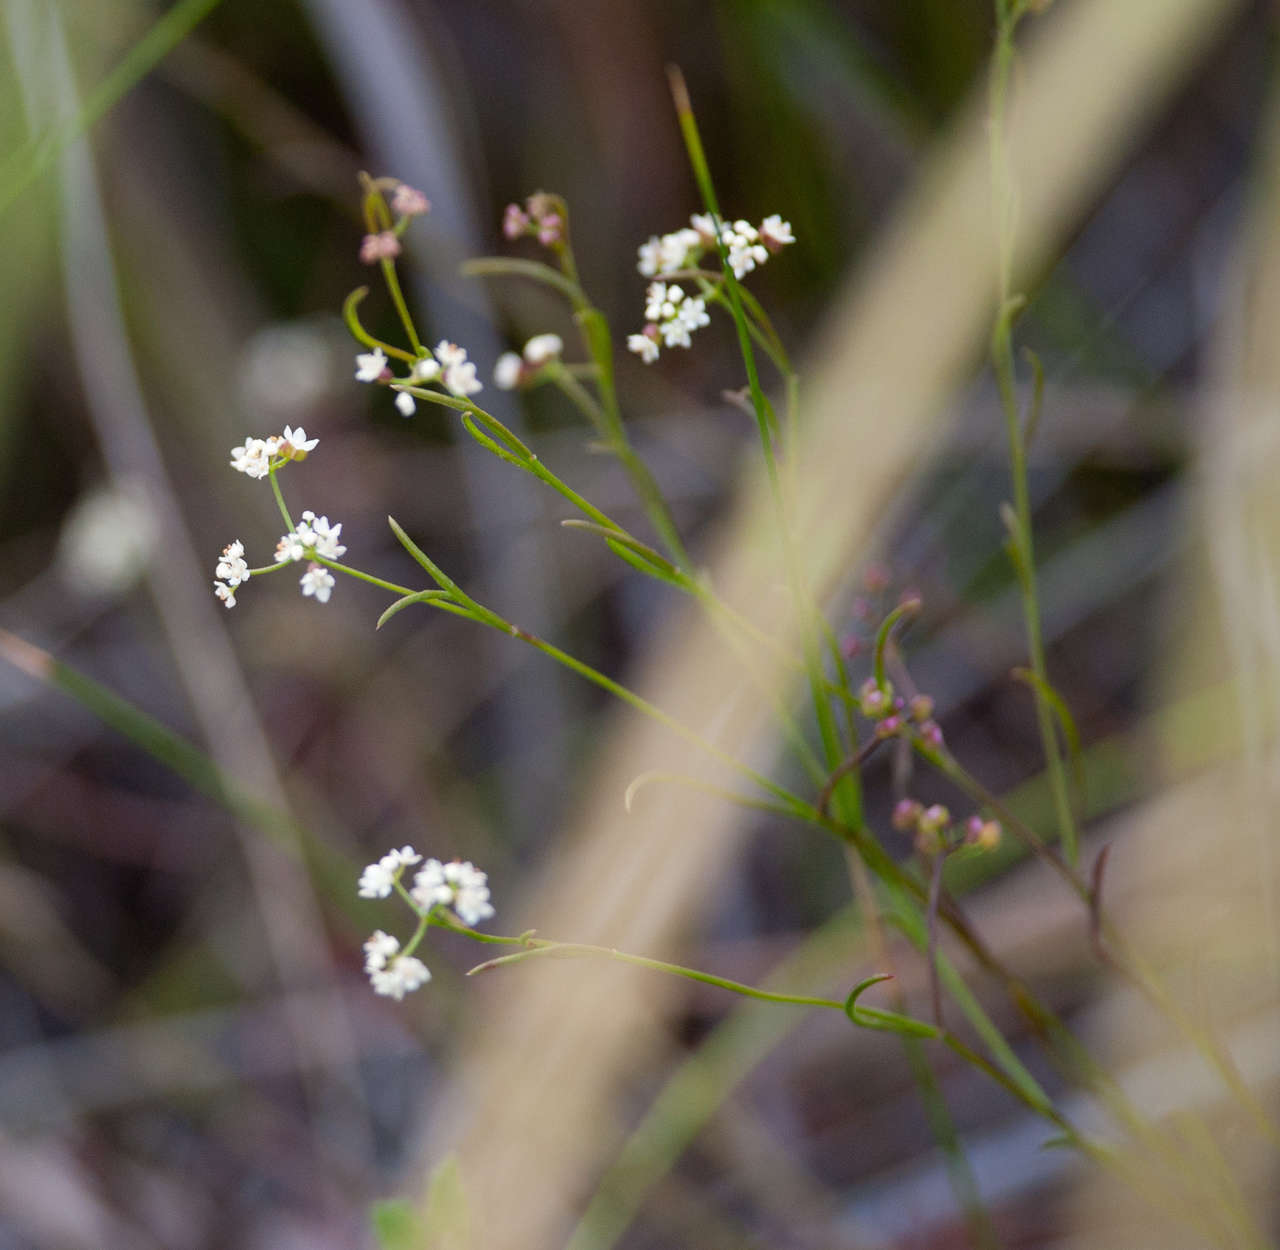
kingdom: Plantae
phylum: Tracheophyta
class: Magnoliopsida
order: Apiales
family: Apiaceae
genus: Platysace
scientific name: Platysace heterophylla
